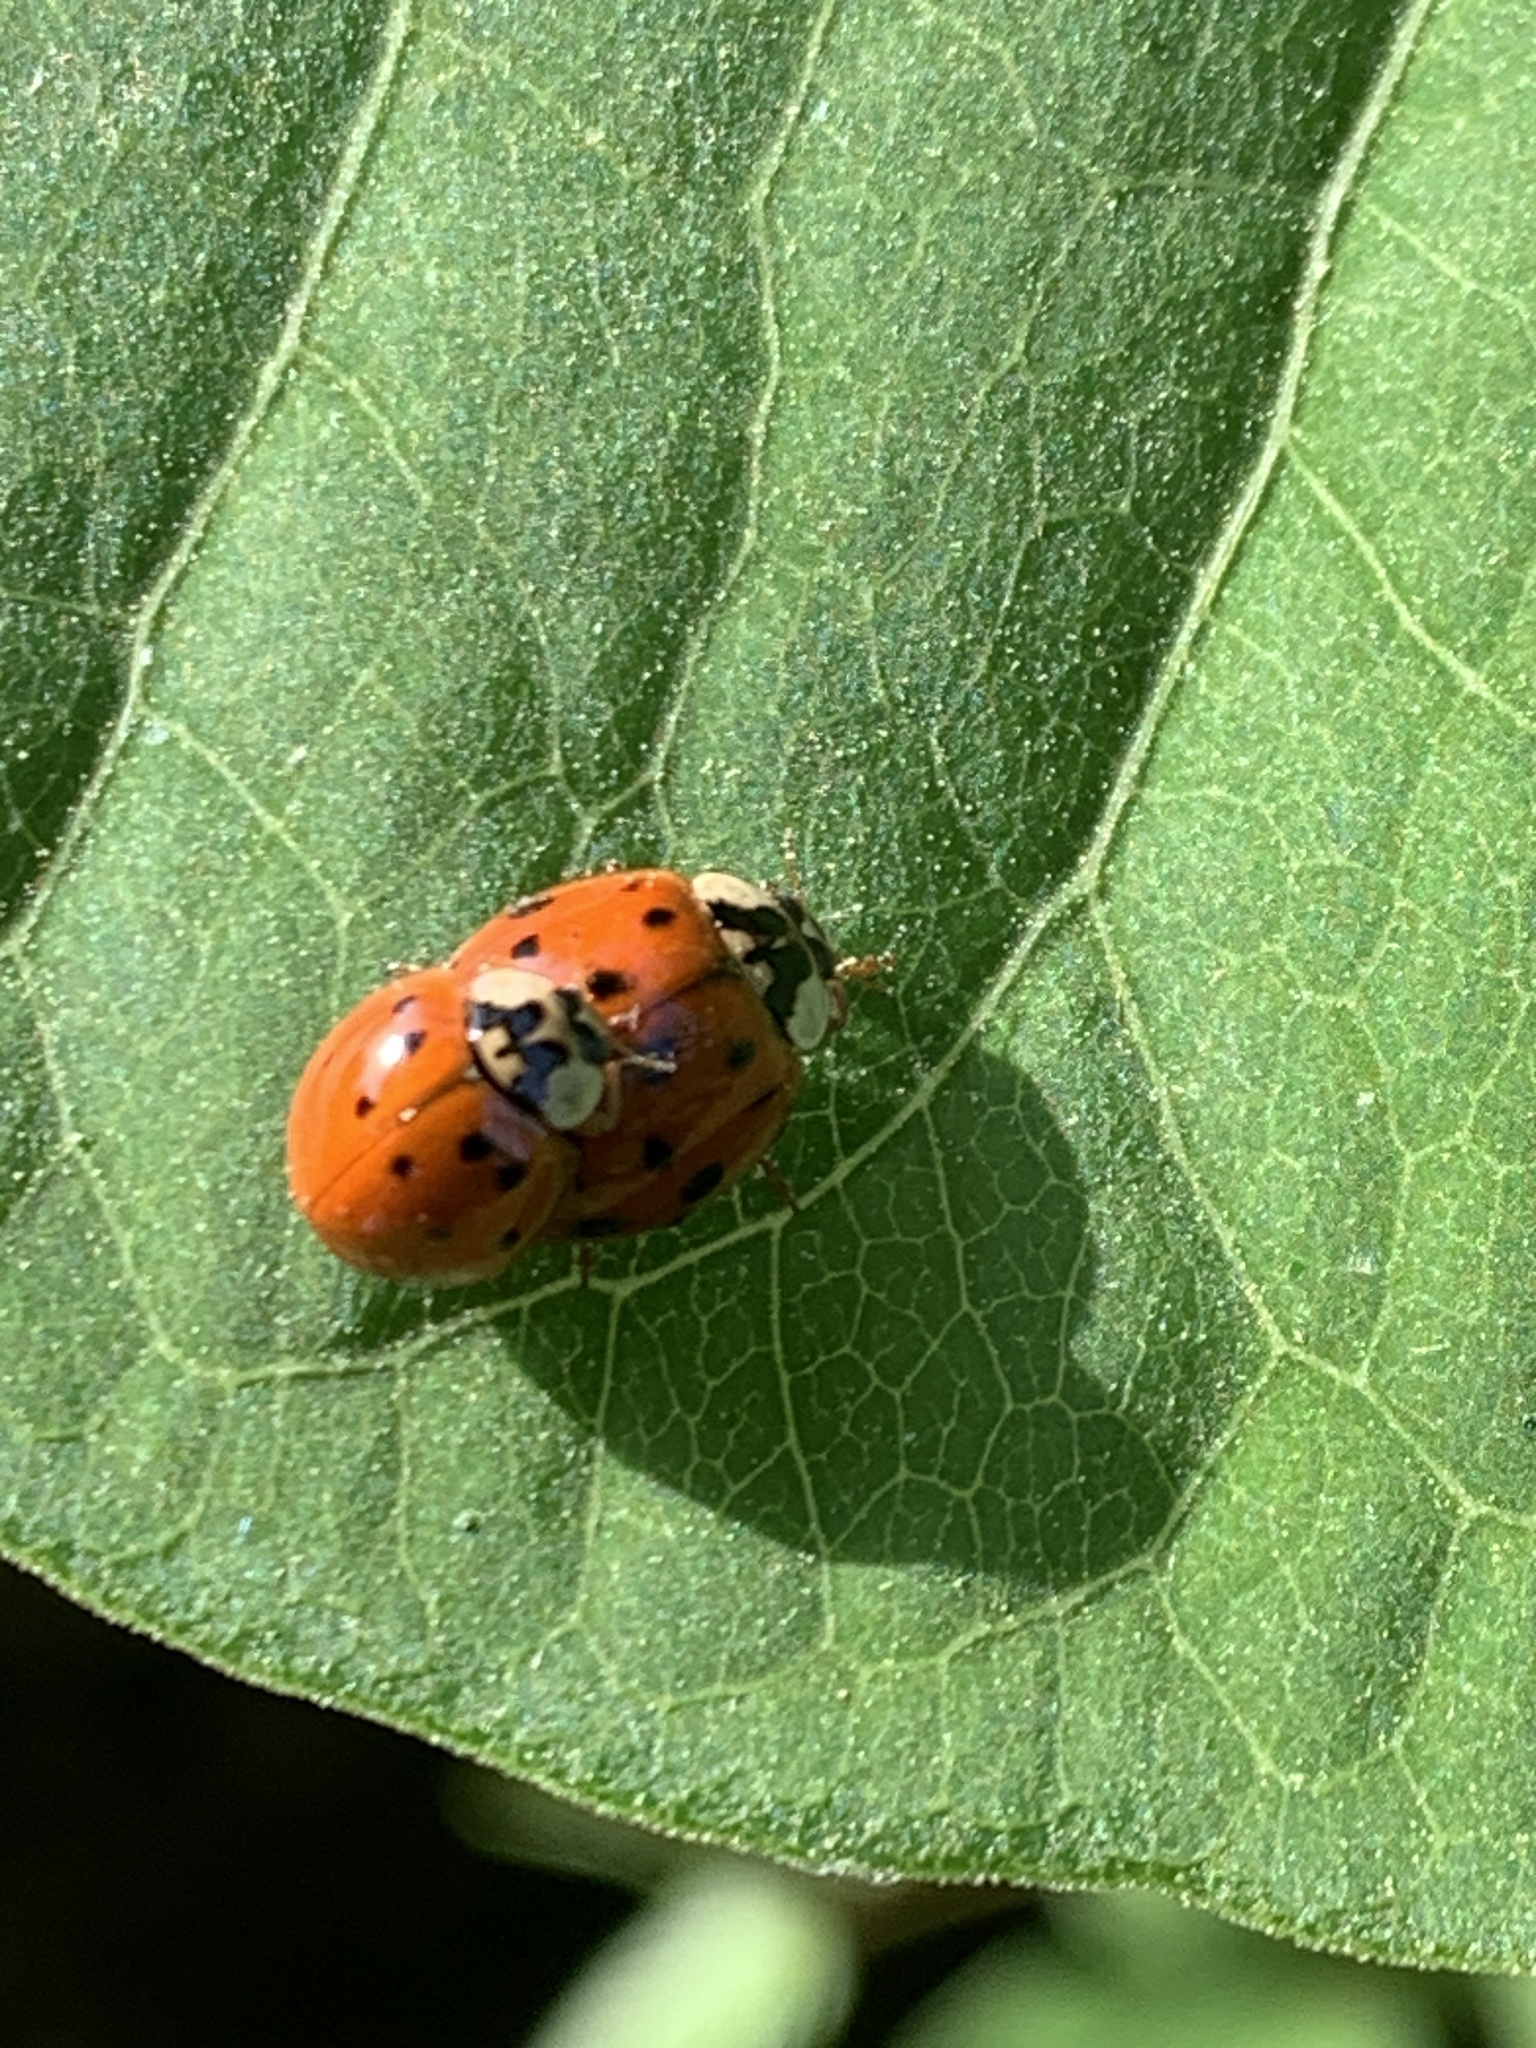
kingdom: Animalia
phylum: Arthropoda
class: Insecta
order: Coleoptera
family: Coccinellidae
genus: Harmonia
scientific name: Harmonia axyridis
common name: Harlequin ladybird
